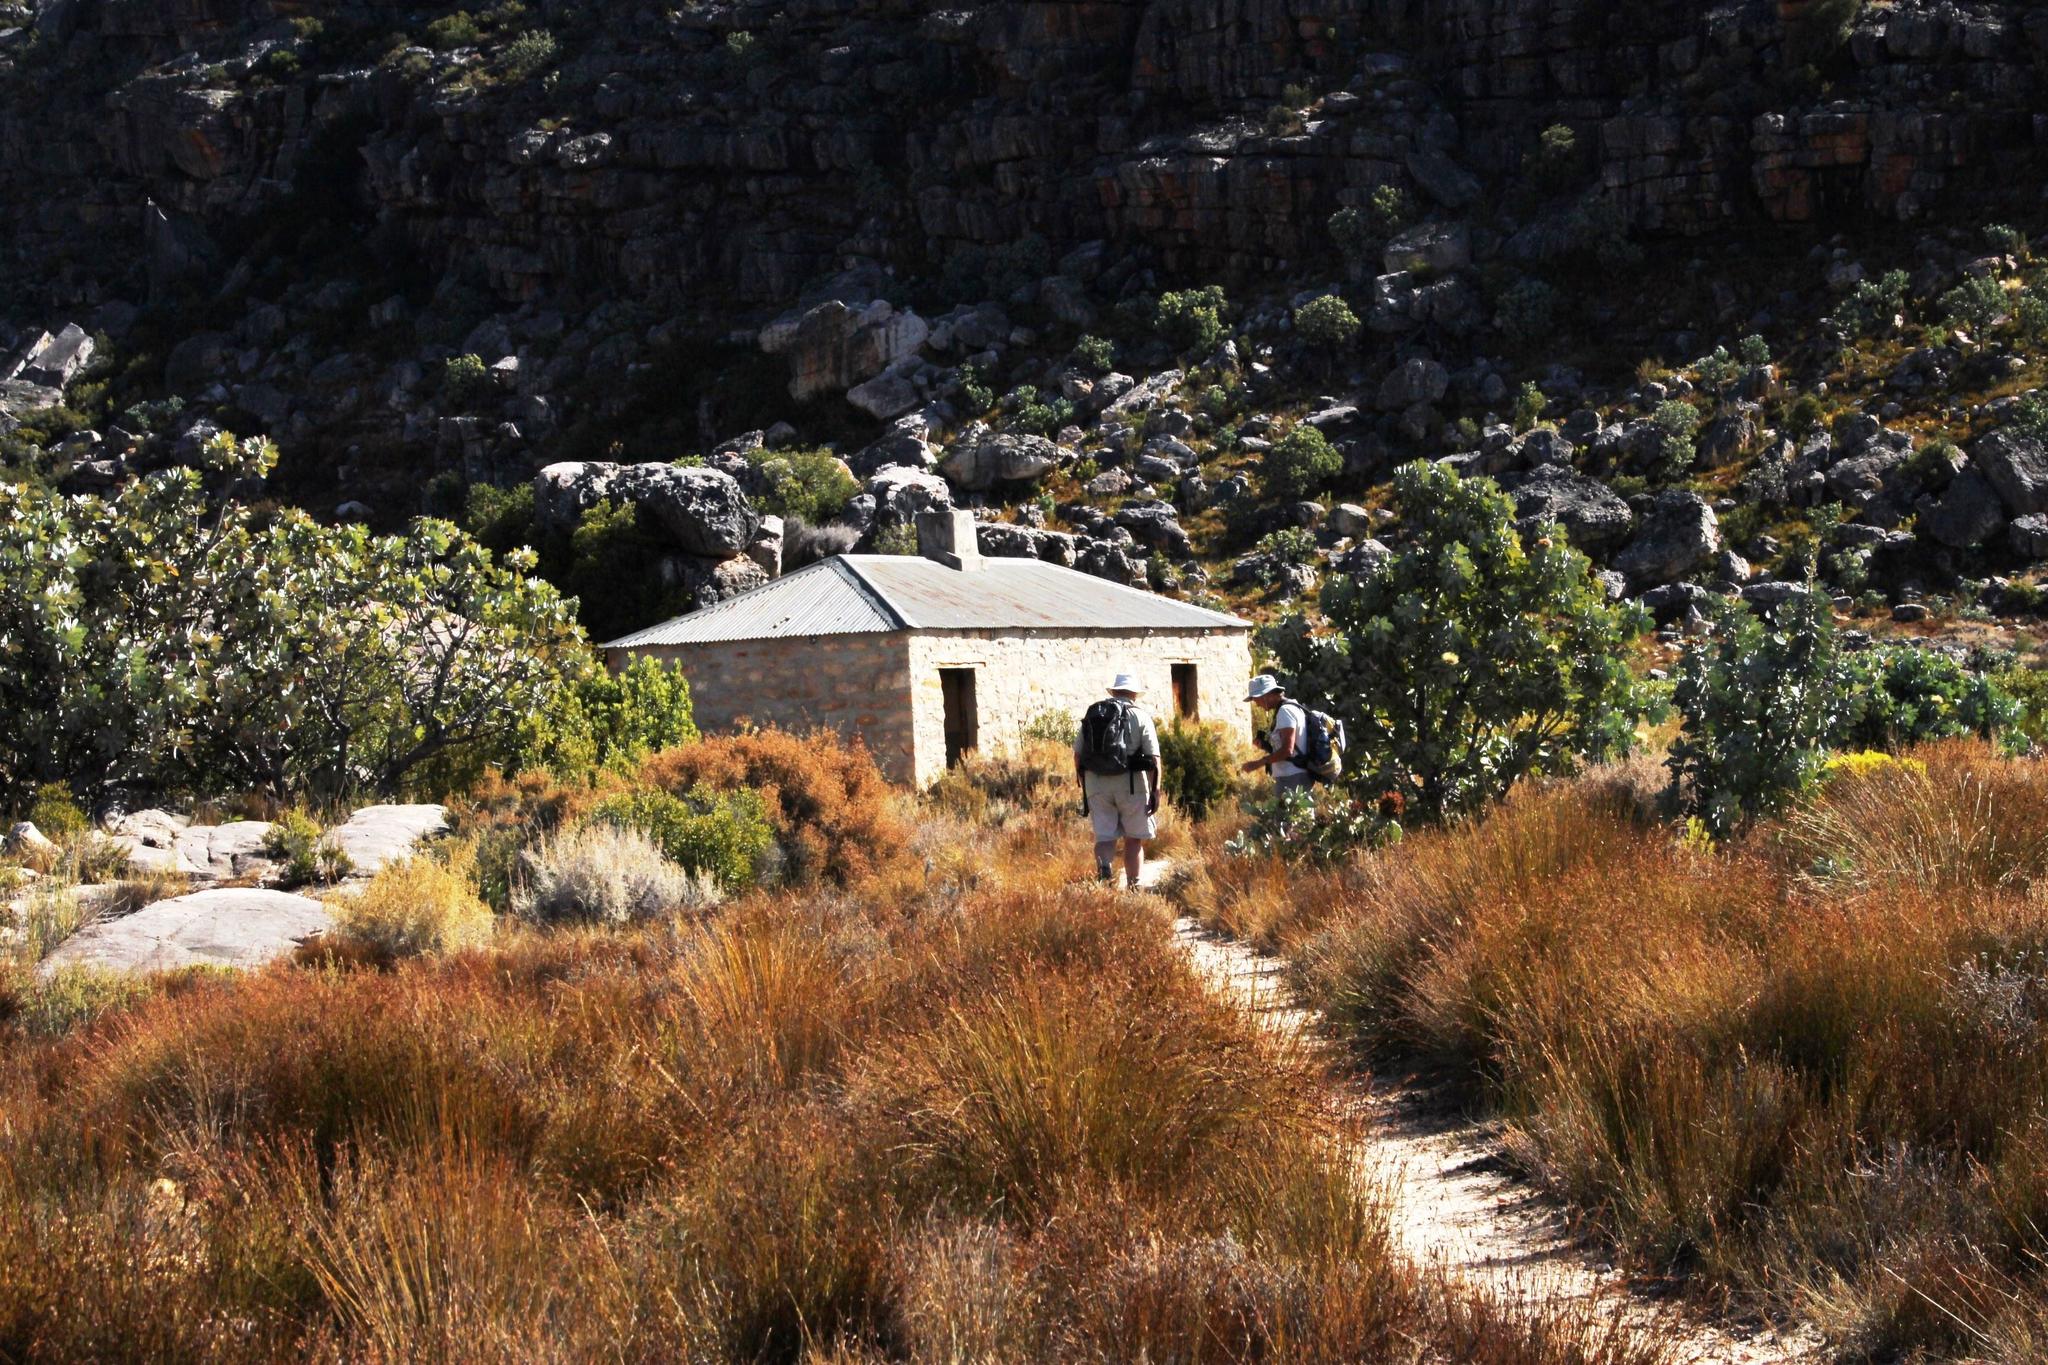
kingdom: Plantae
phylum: Tracheophyta
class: Magnoliopsida
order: Proteales
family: Proteaceae
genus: Protea
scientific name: Protea nitida
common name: Tree protea
